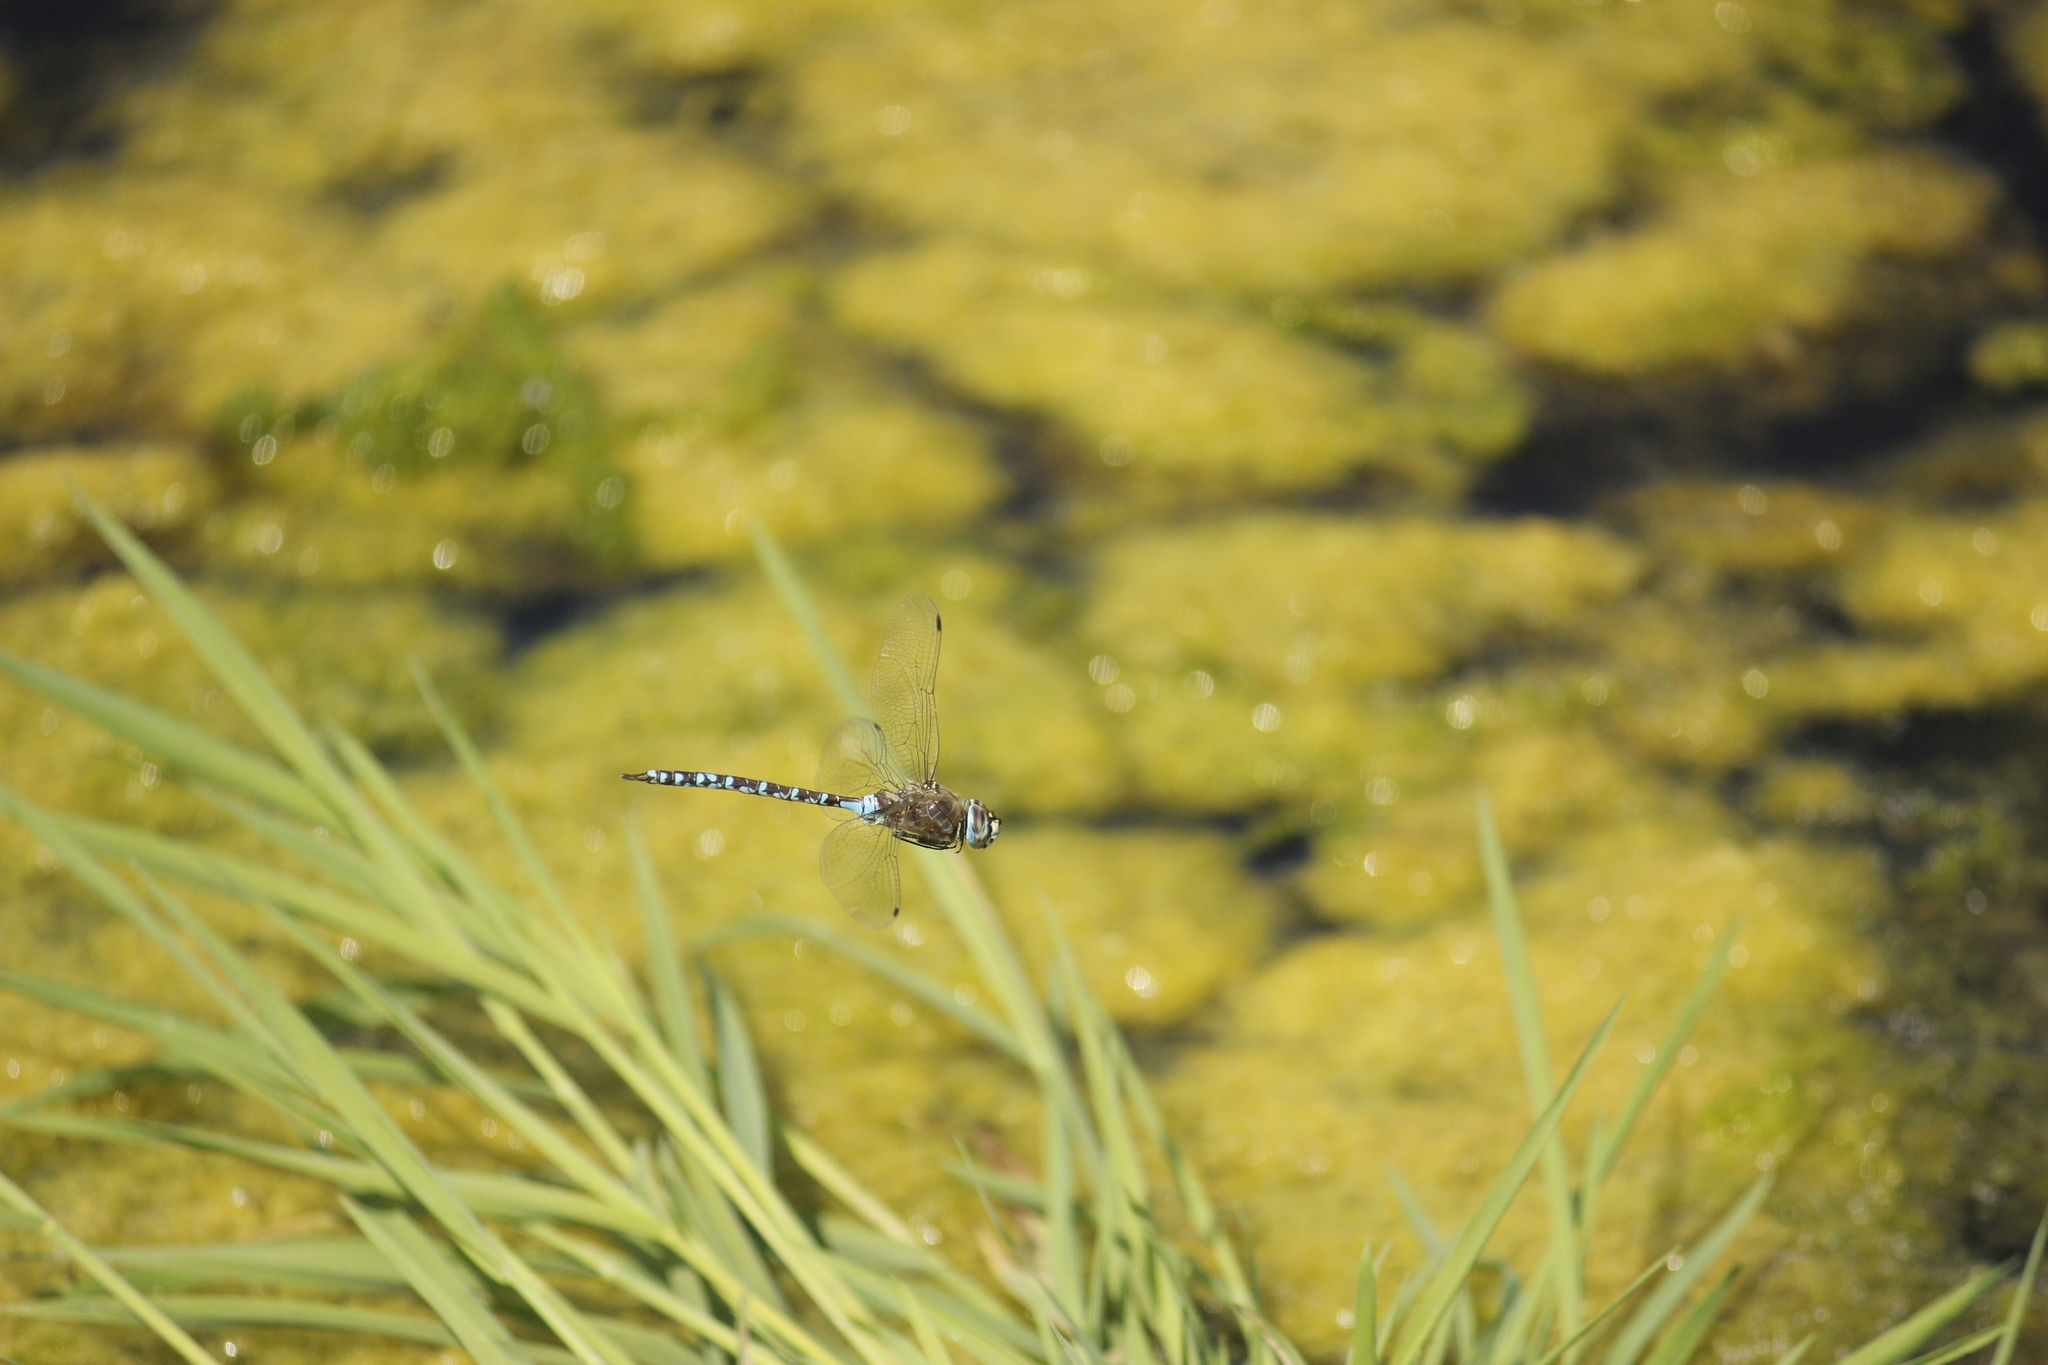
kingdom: Animalia
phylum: Arthropoda
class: Insecta
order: Odonata
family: Aeshnidae
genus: Rhionaeschna
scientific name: Rhionaeschna elsia
